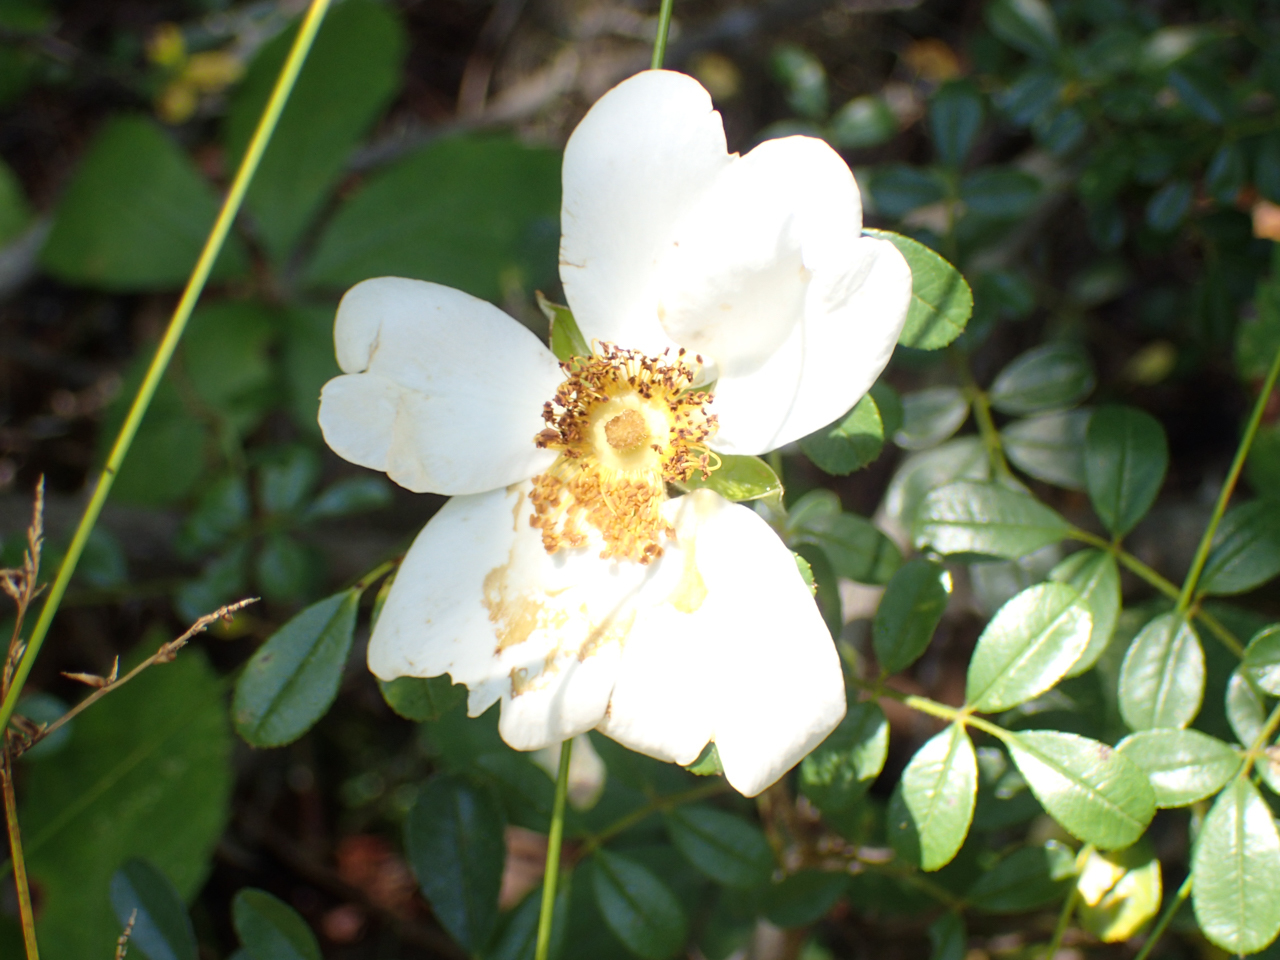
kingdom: Plantae
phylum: Tracheophyta
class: Magnoliopsida
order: Rosales
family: Rosaceae
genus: Rosa
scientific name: Rosa bracteata
